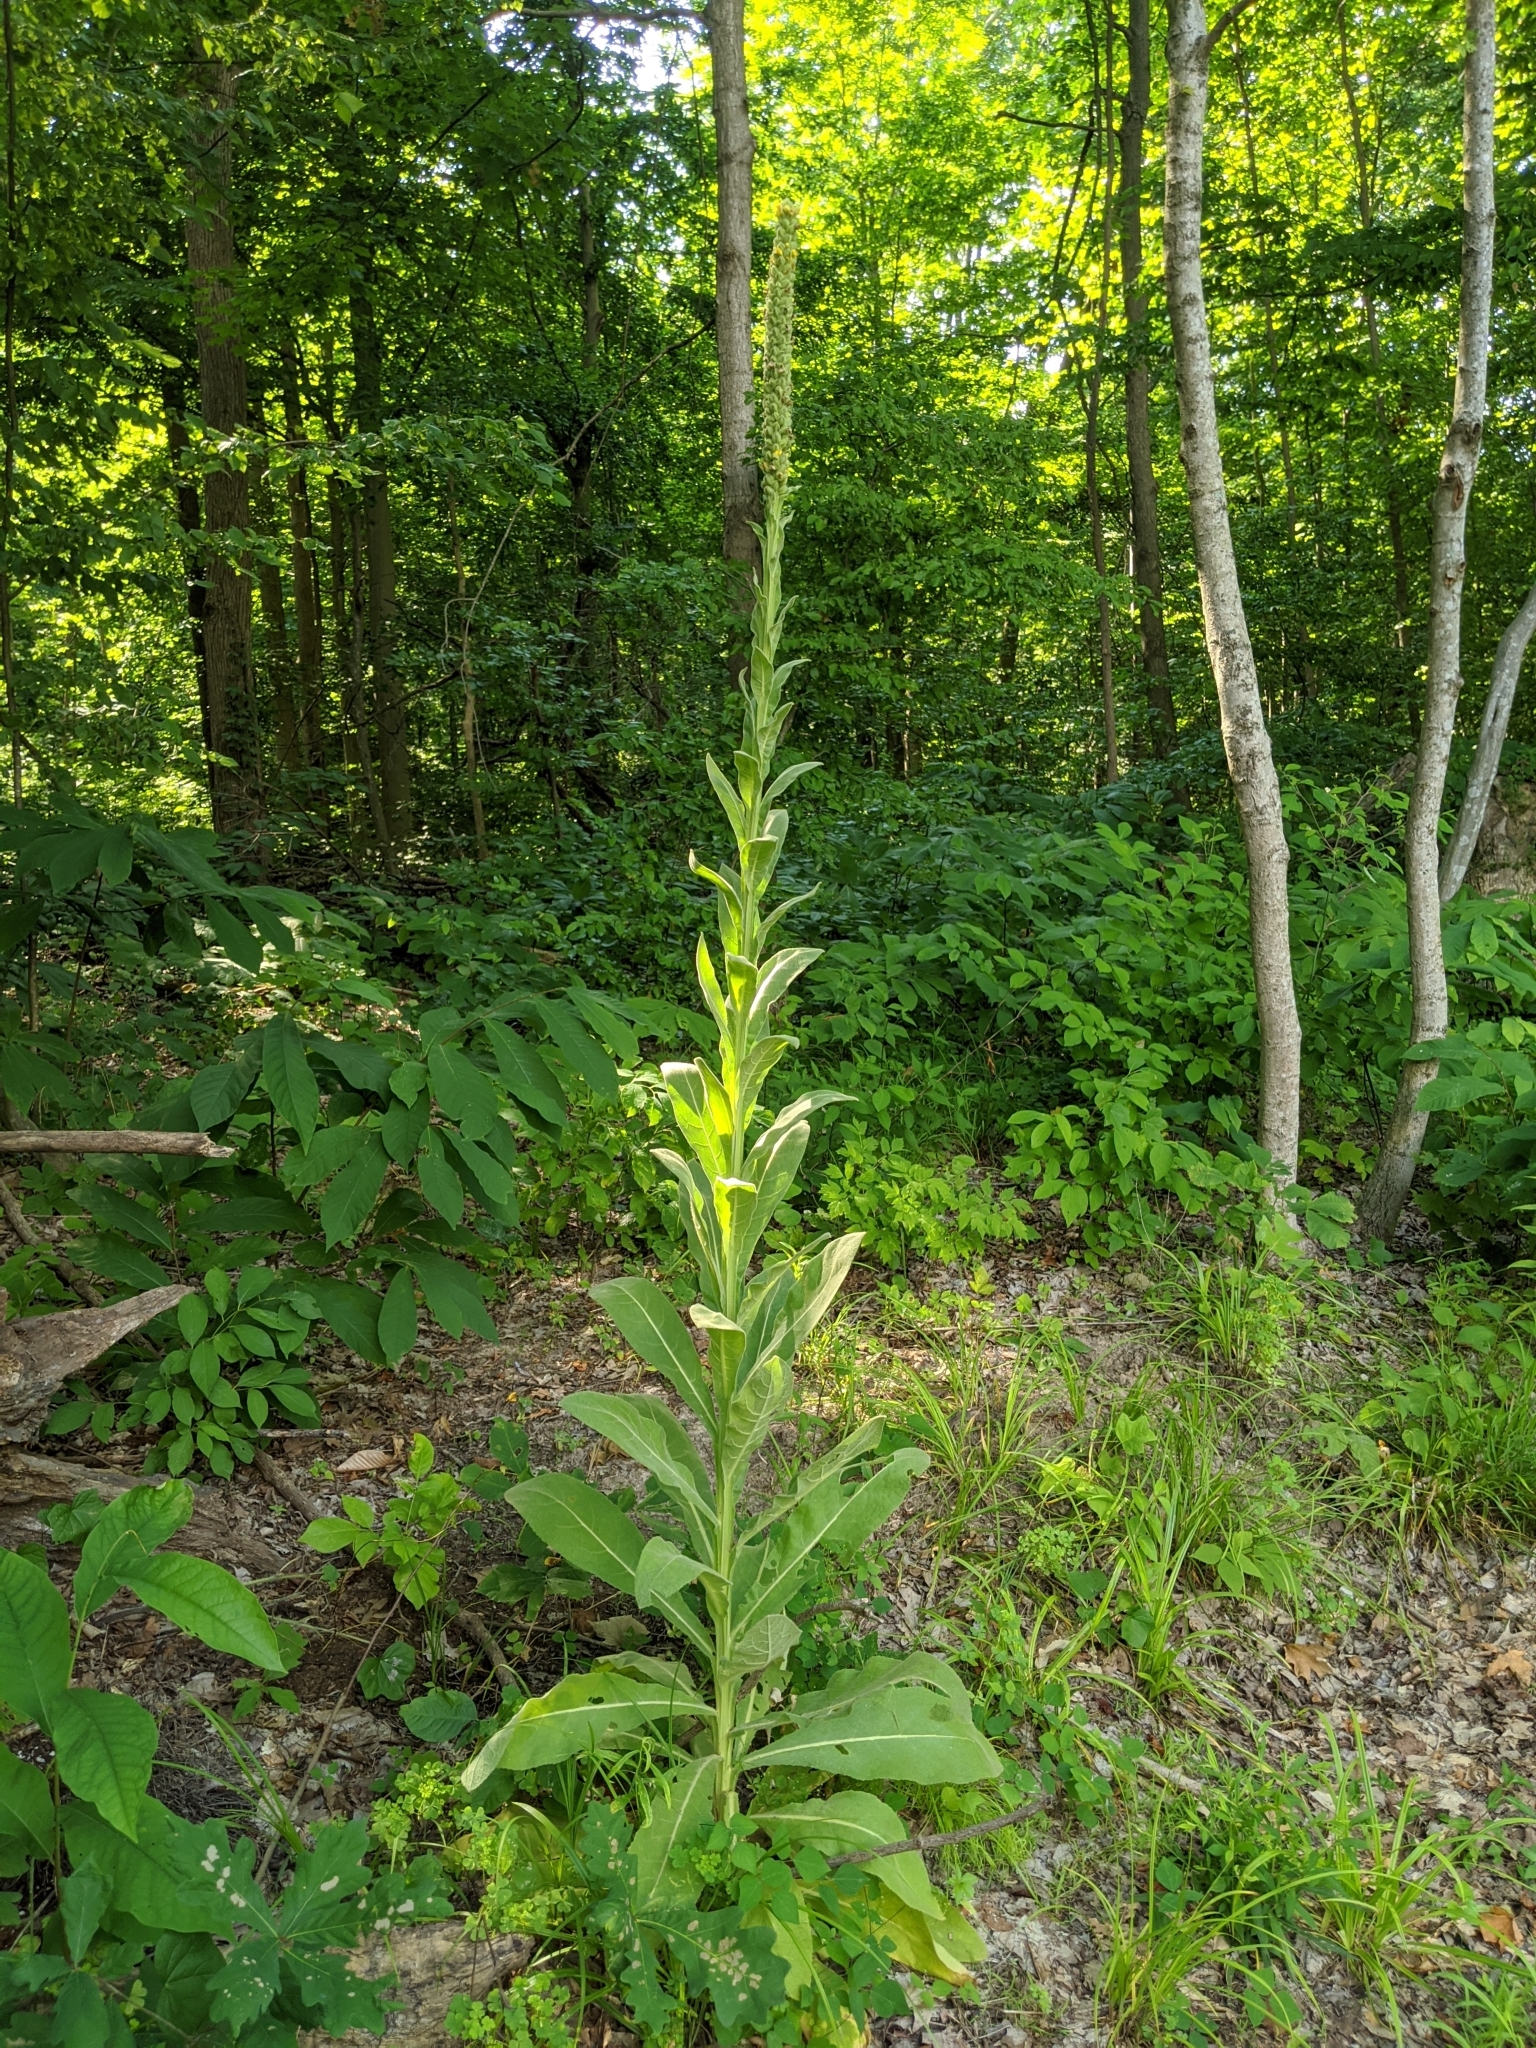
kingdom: Plantae
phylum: Tracheophyta
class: Magnoliopsida
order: Lamiales
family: Scrophulariaceae
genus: Verbascum
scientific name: Verbascum thapsus
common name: Common mullein
